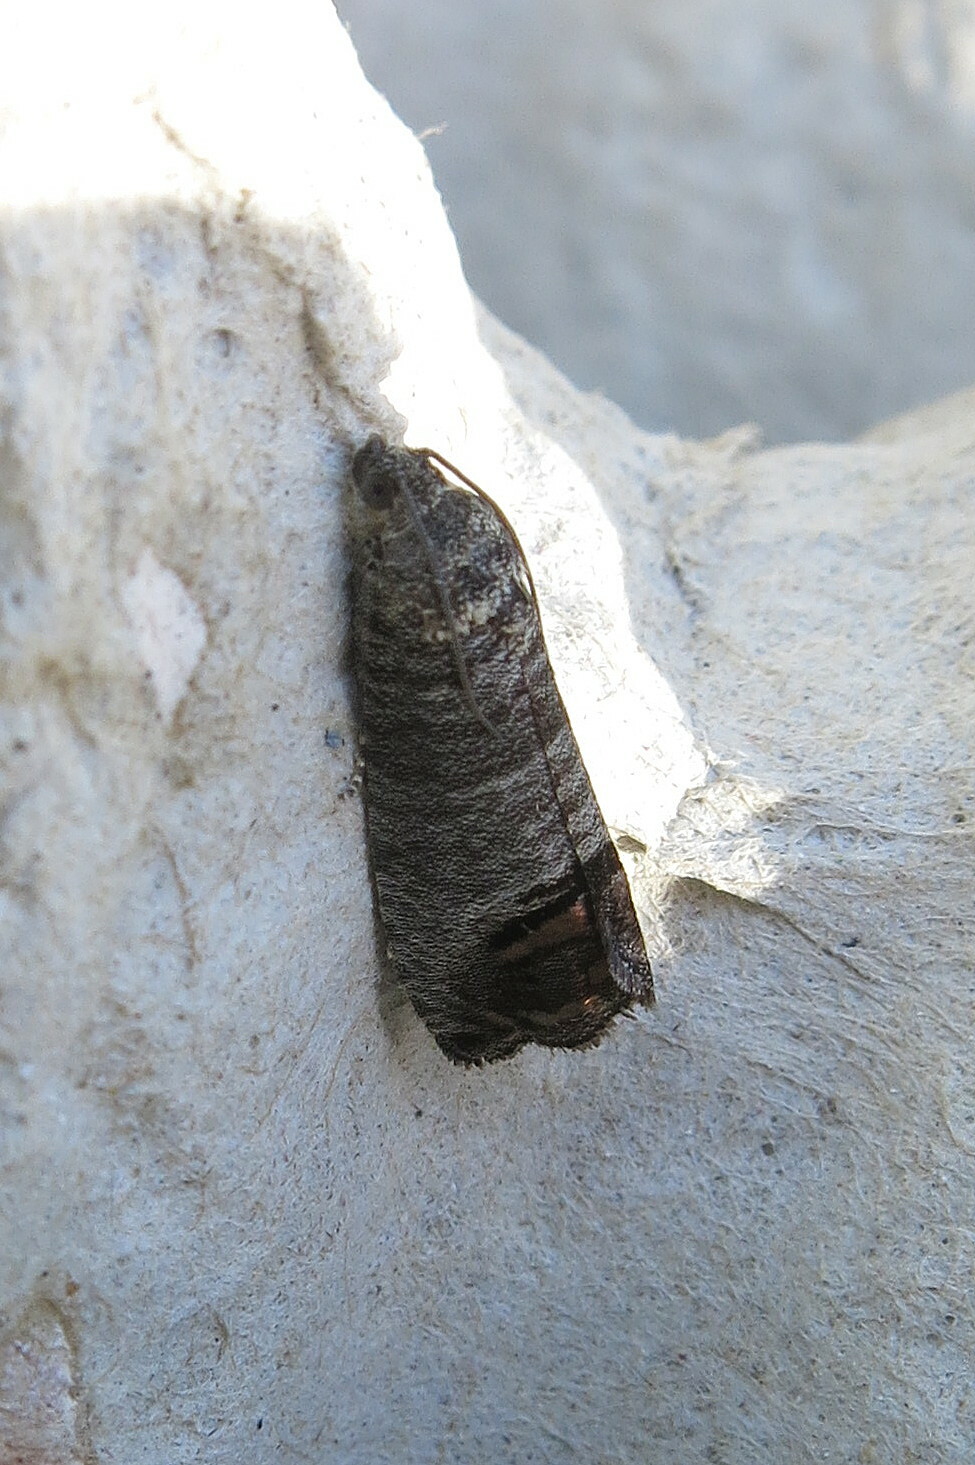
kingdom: Animalia
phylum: Arthropoda
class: Insecta
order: Lepidoptera
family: Tortricidae
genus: Cydia
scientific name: Cydia pomonella
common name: Codling moth
